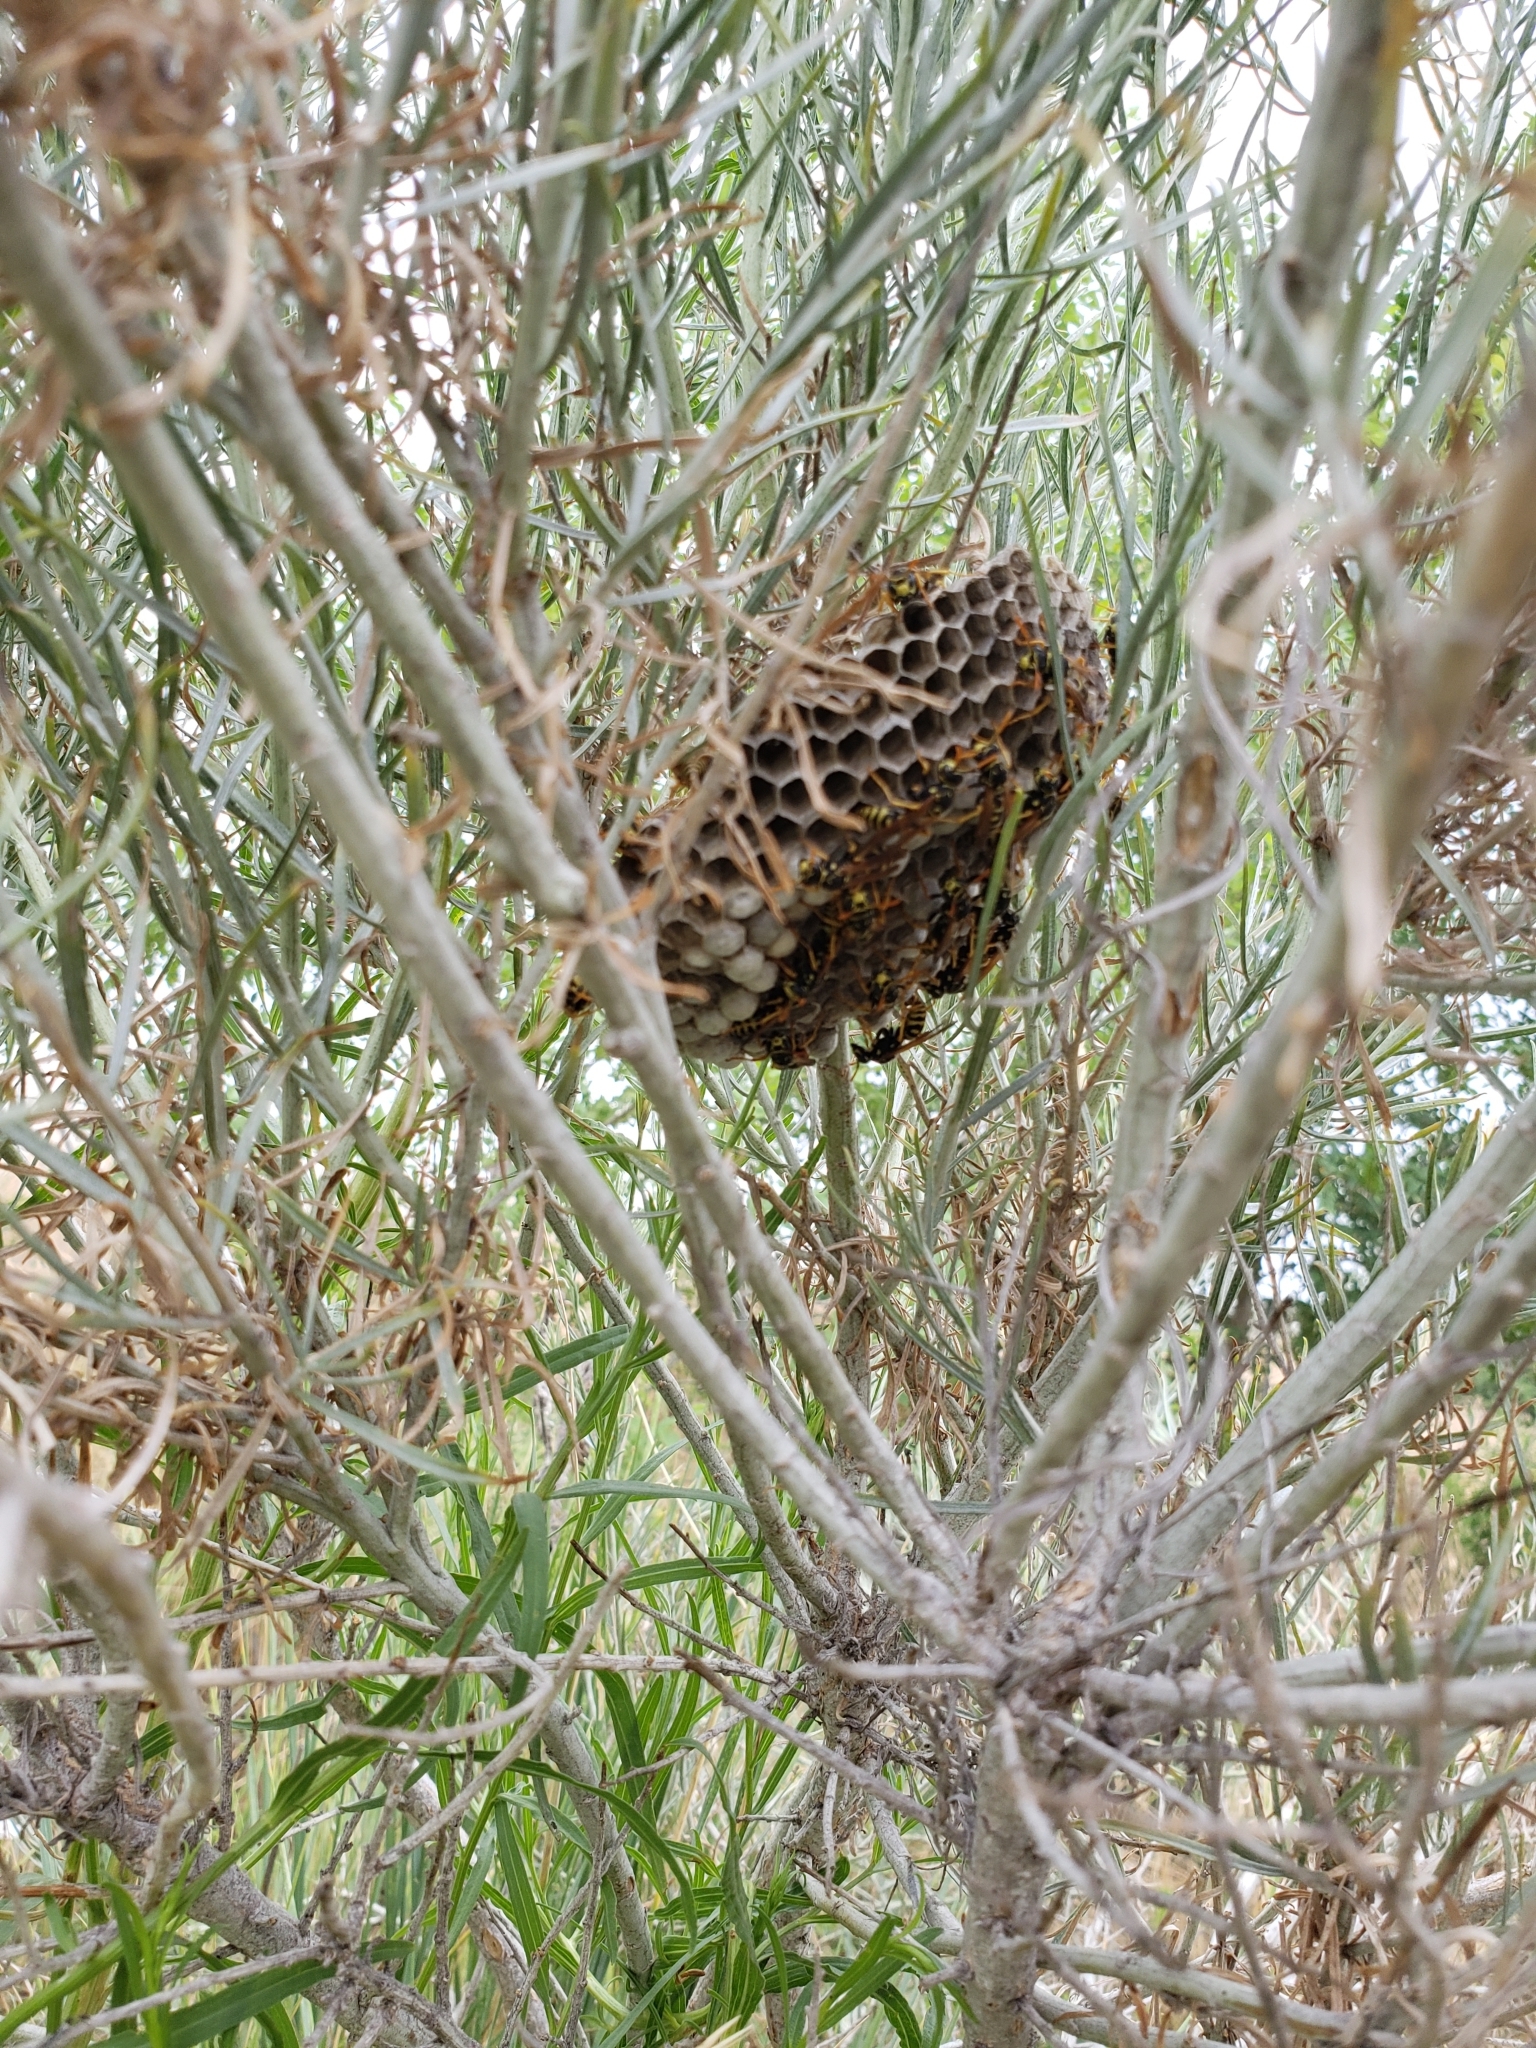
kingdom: Animalia
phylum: Arthropoda
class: Insecta
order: Hymenoptera
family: Eumenidae
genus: Polistes
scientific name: Polistes dominula
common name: Paper wasp
